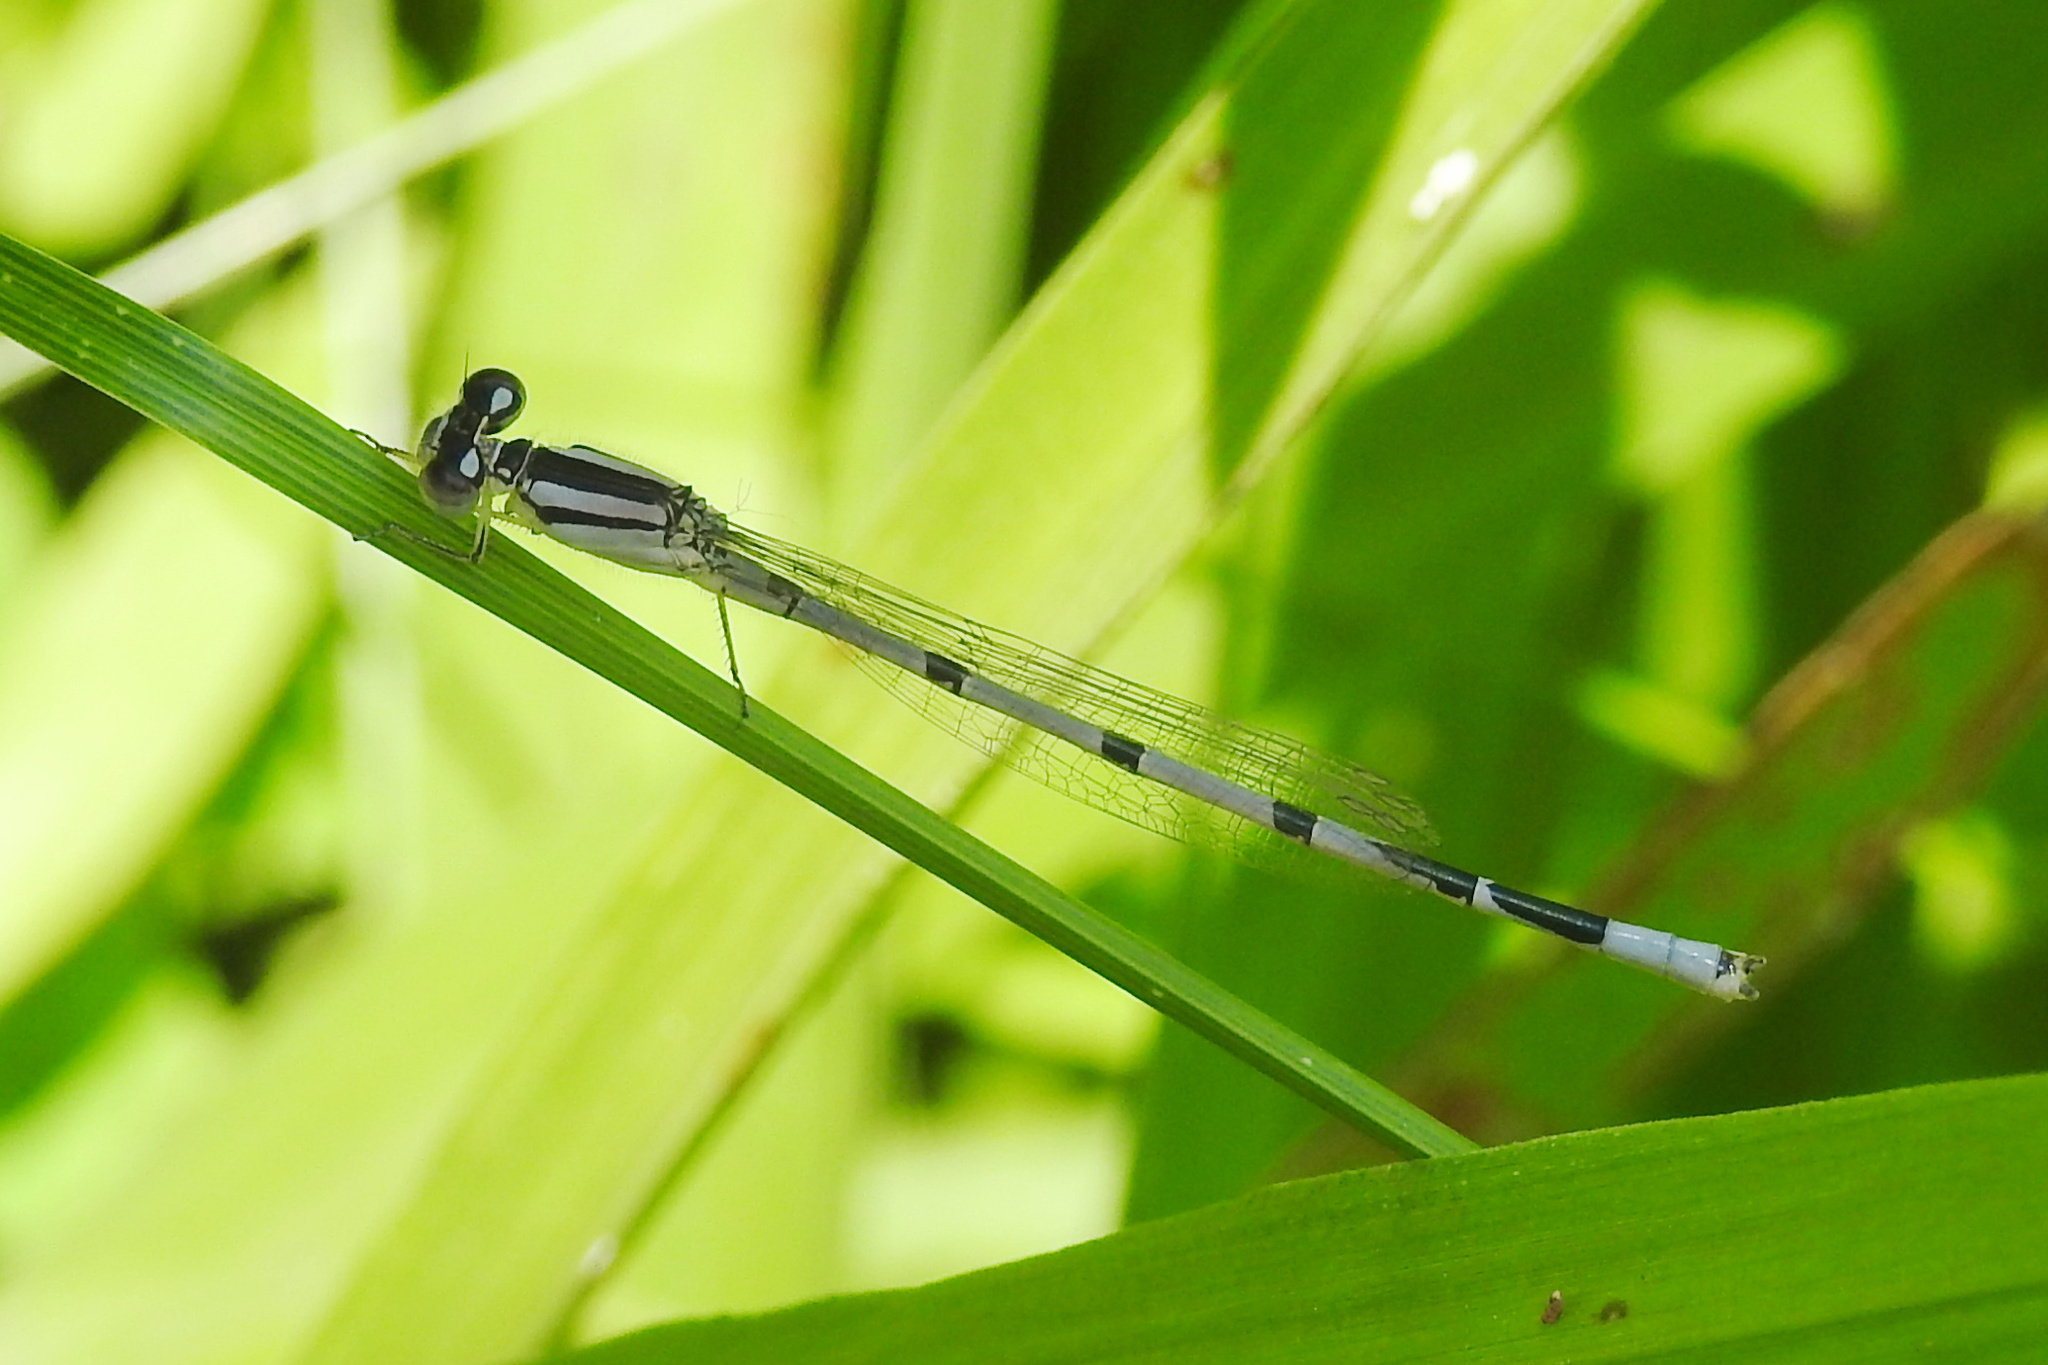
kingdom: Animalia
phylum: Arthropoda
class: Insecta
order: Odonata
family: Coenagrionidae
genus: Enallagma
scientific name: Enallagma civile
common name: Damselfly
